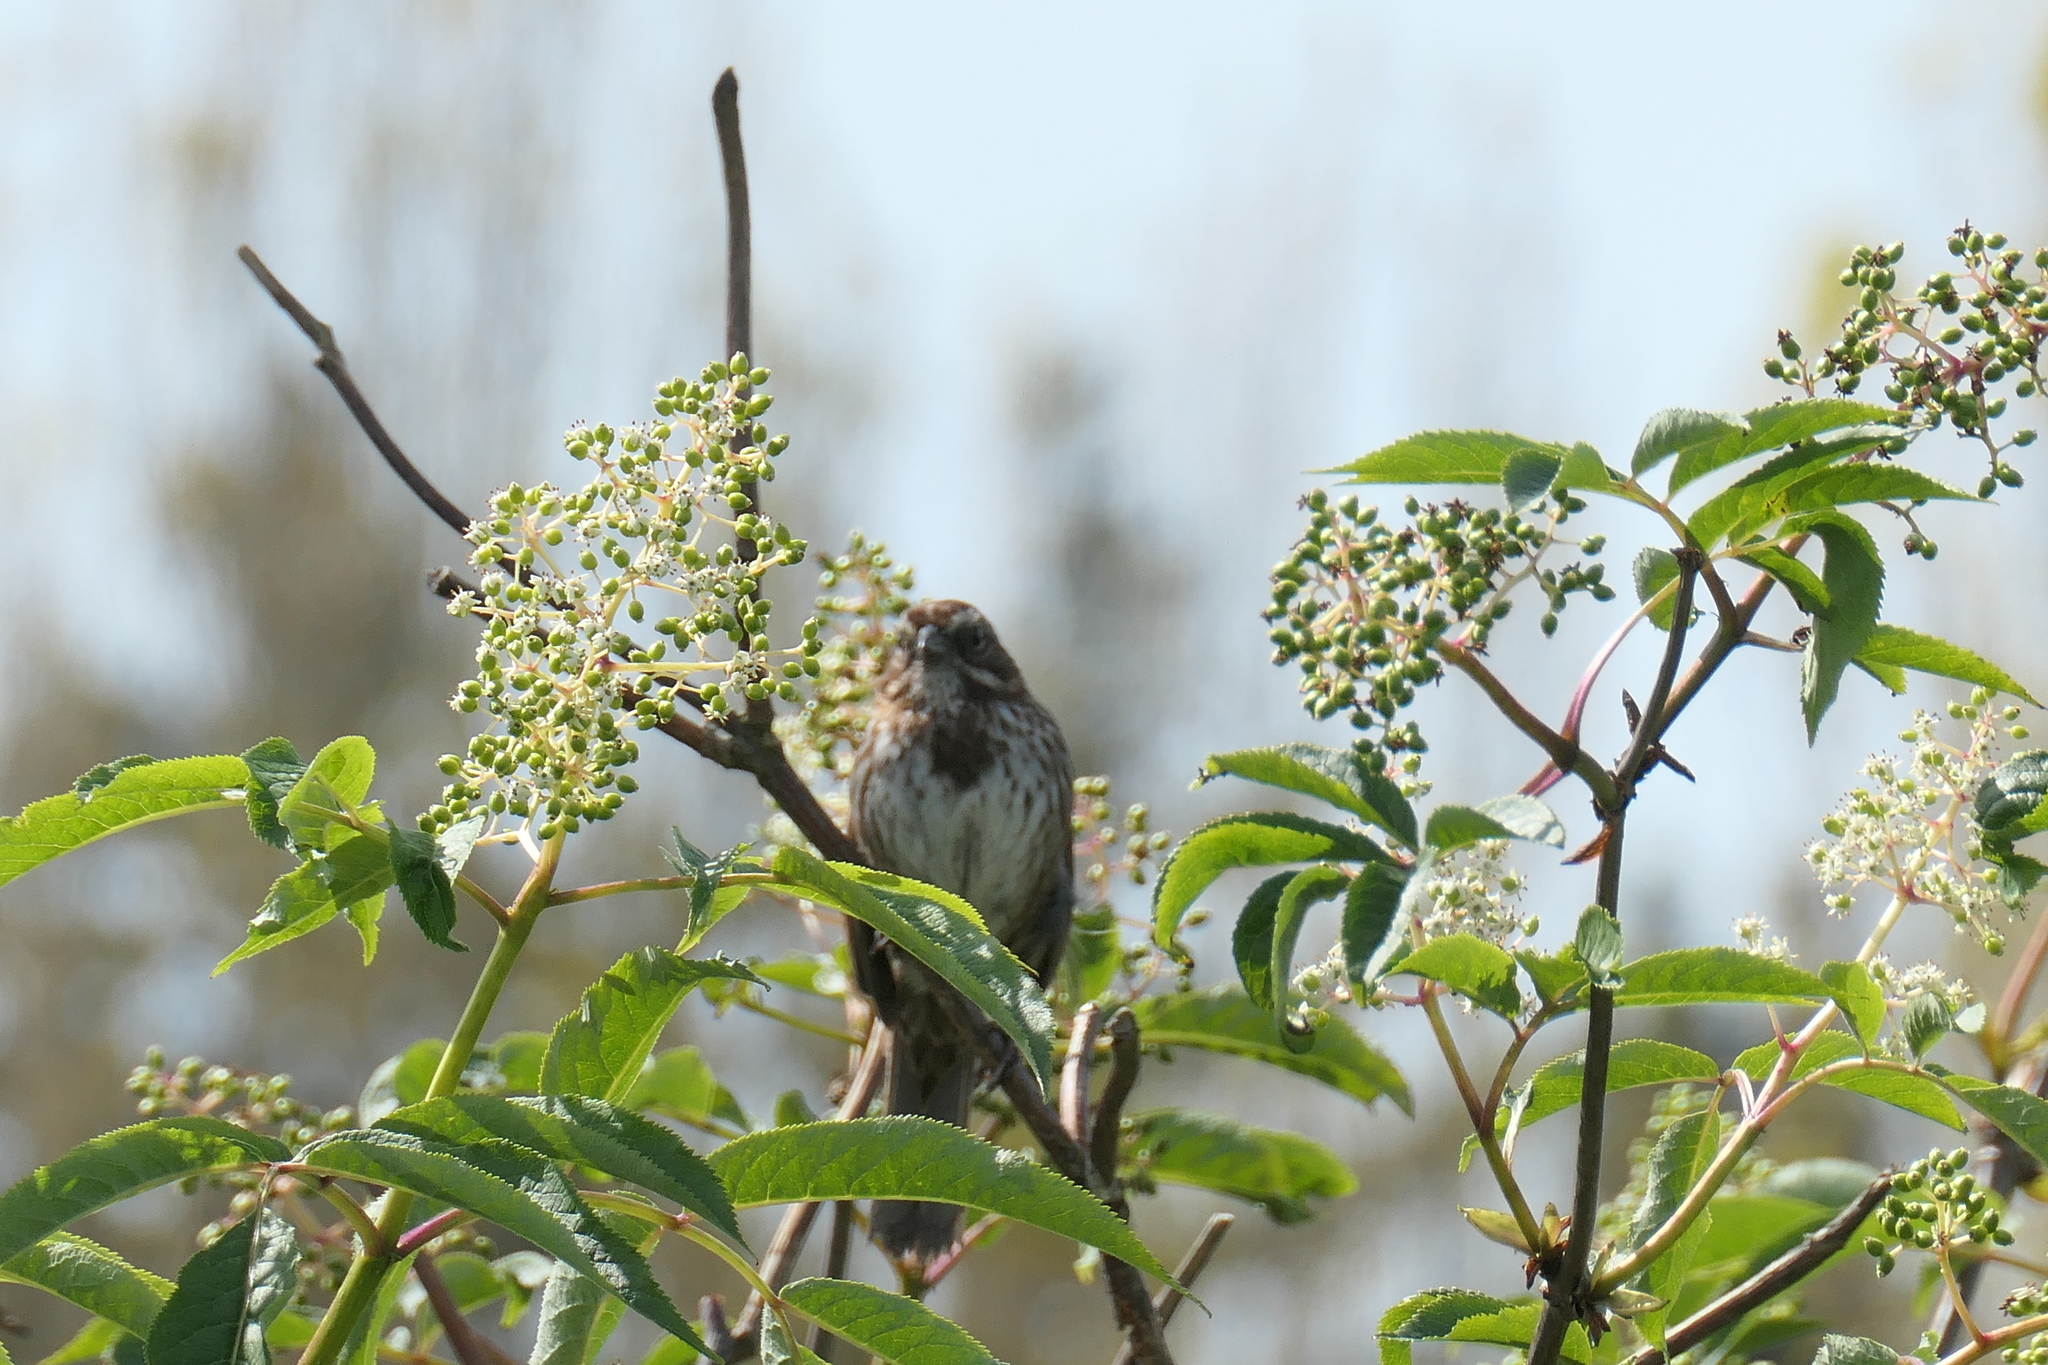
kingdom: Animalia
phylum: Chordata
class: Aves
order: Passeriformes
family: Passerellidae
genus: Melospiza
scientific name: Melospiza melodia
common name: Song sparrow
